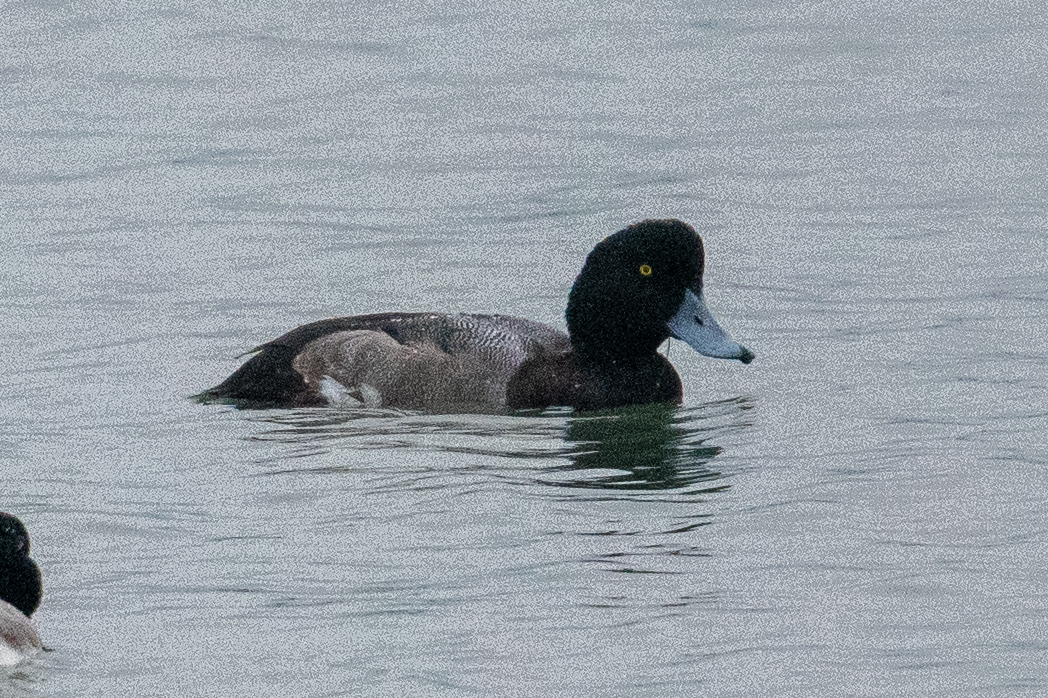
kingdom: Animalia
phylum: Chordata
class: Aves
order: Anseriformes
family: Anatidae
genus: Aythya
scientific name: Aythya marila
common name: Greater scaup
